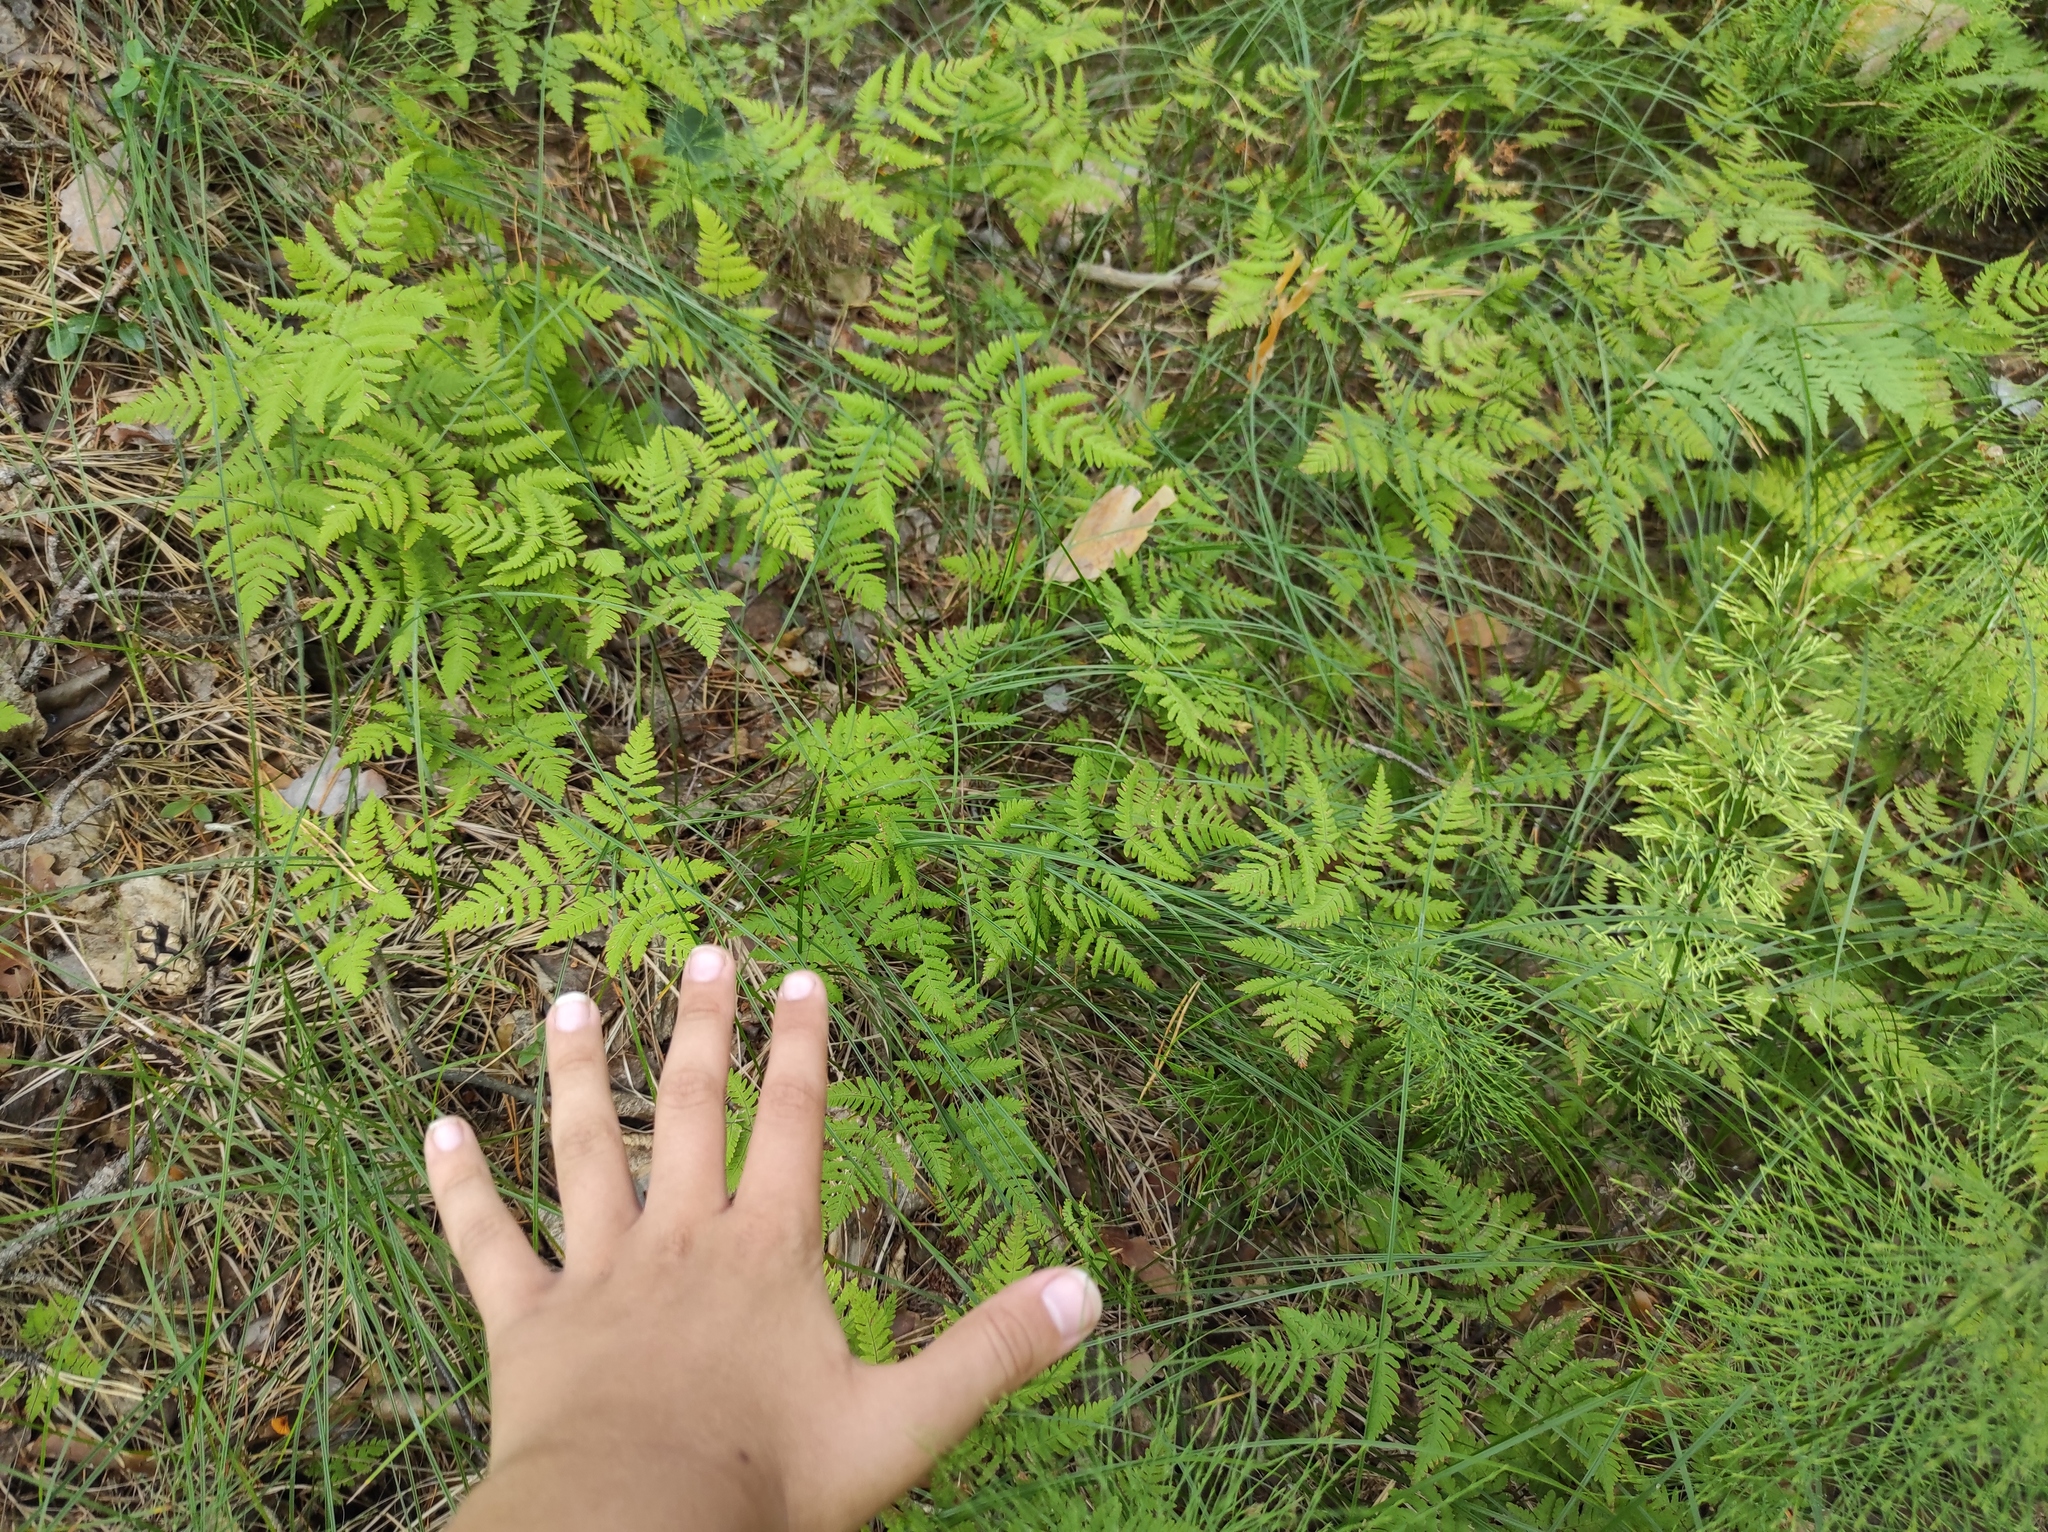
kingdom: Plantae
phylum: Tracheophyta
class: Polypodiopsida
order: Polypodiales
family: Cystopteridaceae
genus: Gymnocarpium
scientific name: Gymnocarpium dryopteris
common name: Oak fern
